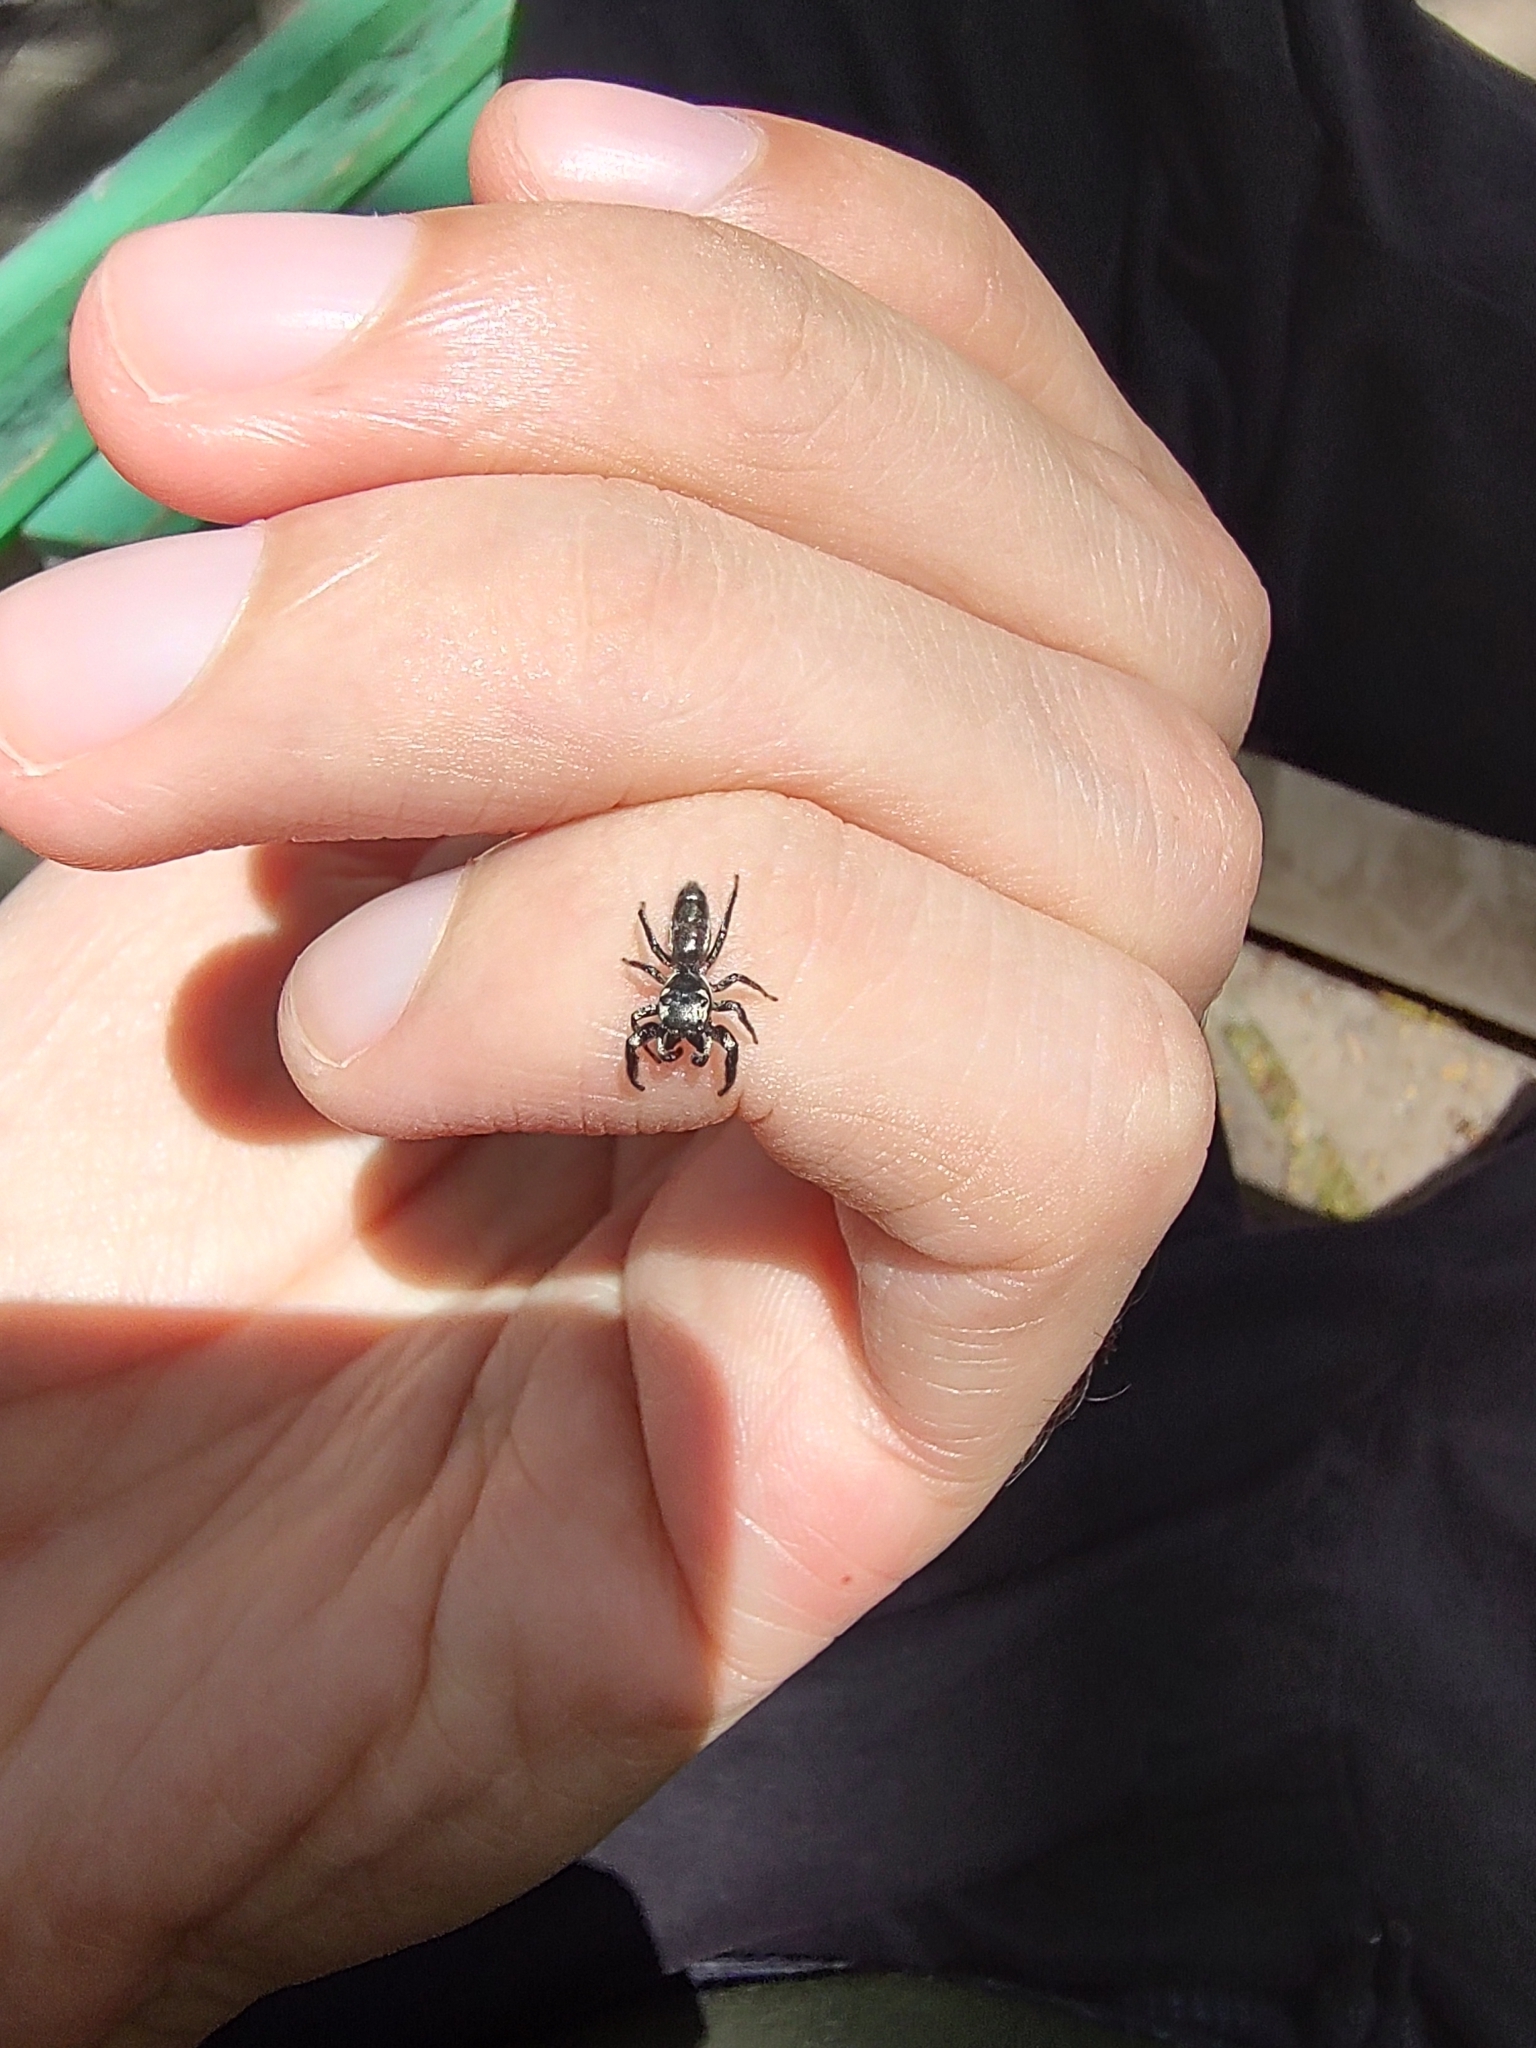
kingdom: Animalia
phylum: Arthropoda
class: Arachnida
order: Araneae
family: Salticidae
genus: Bryantella
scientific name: Bryantella smaragda
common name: Jumping spiders
